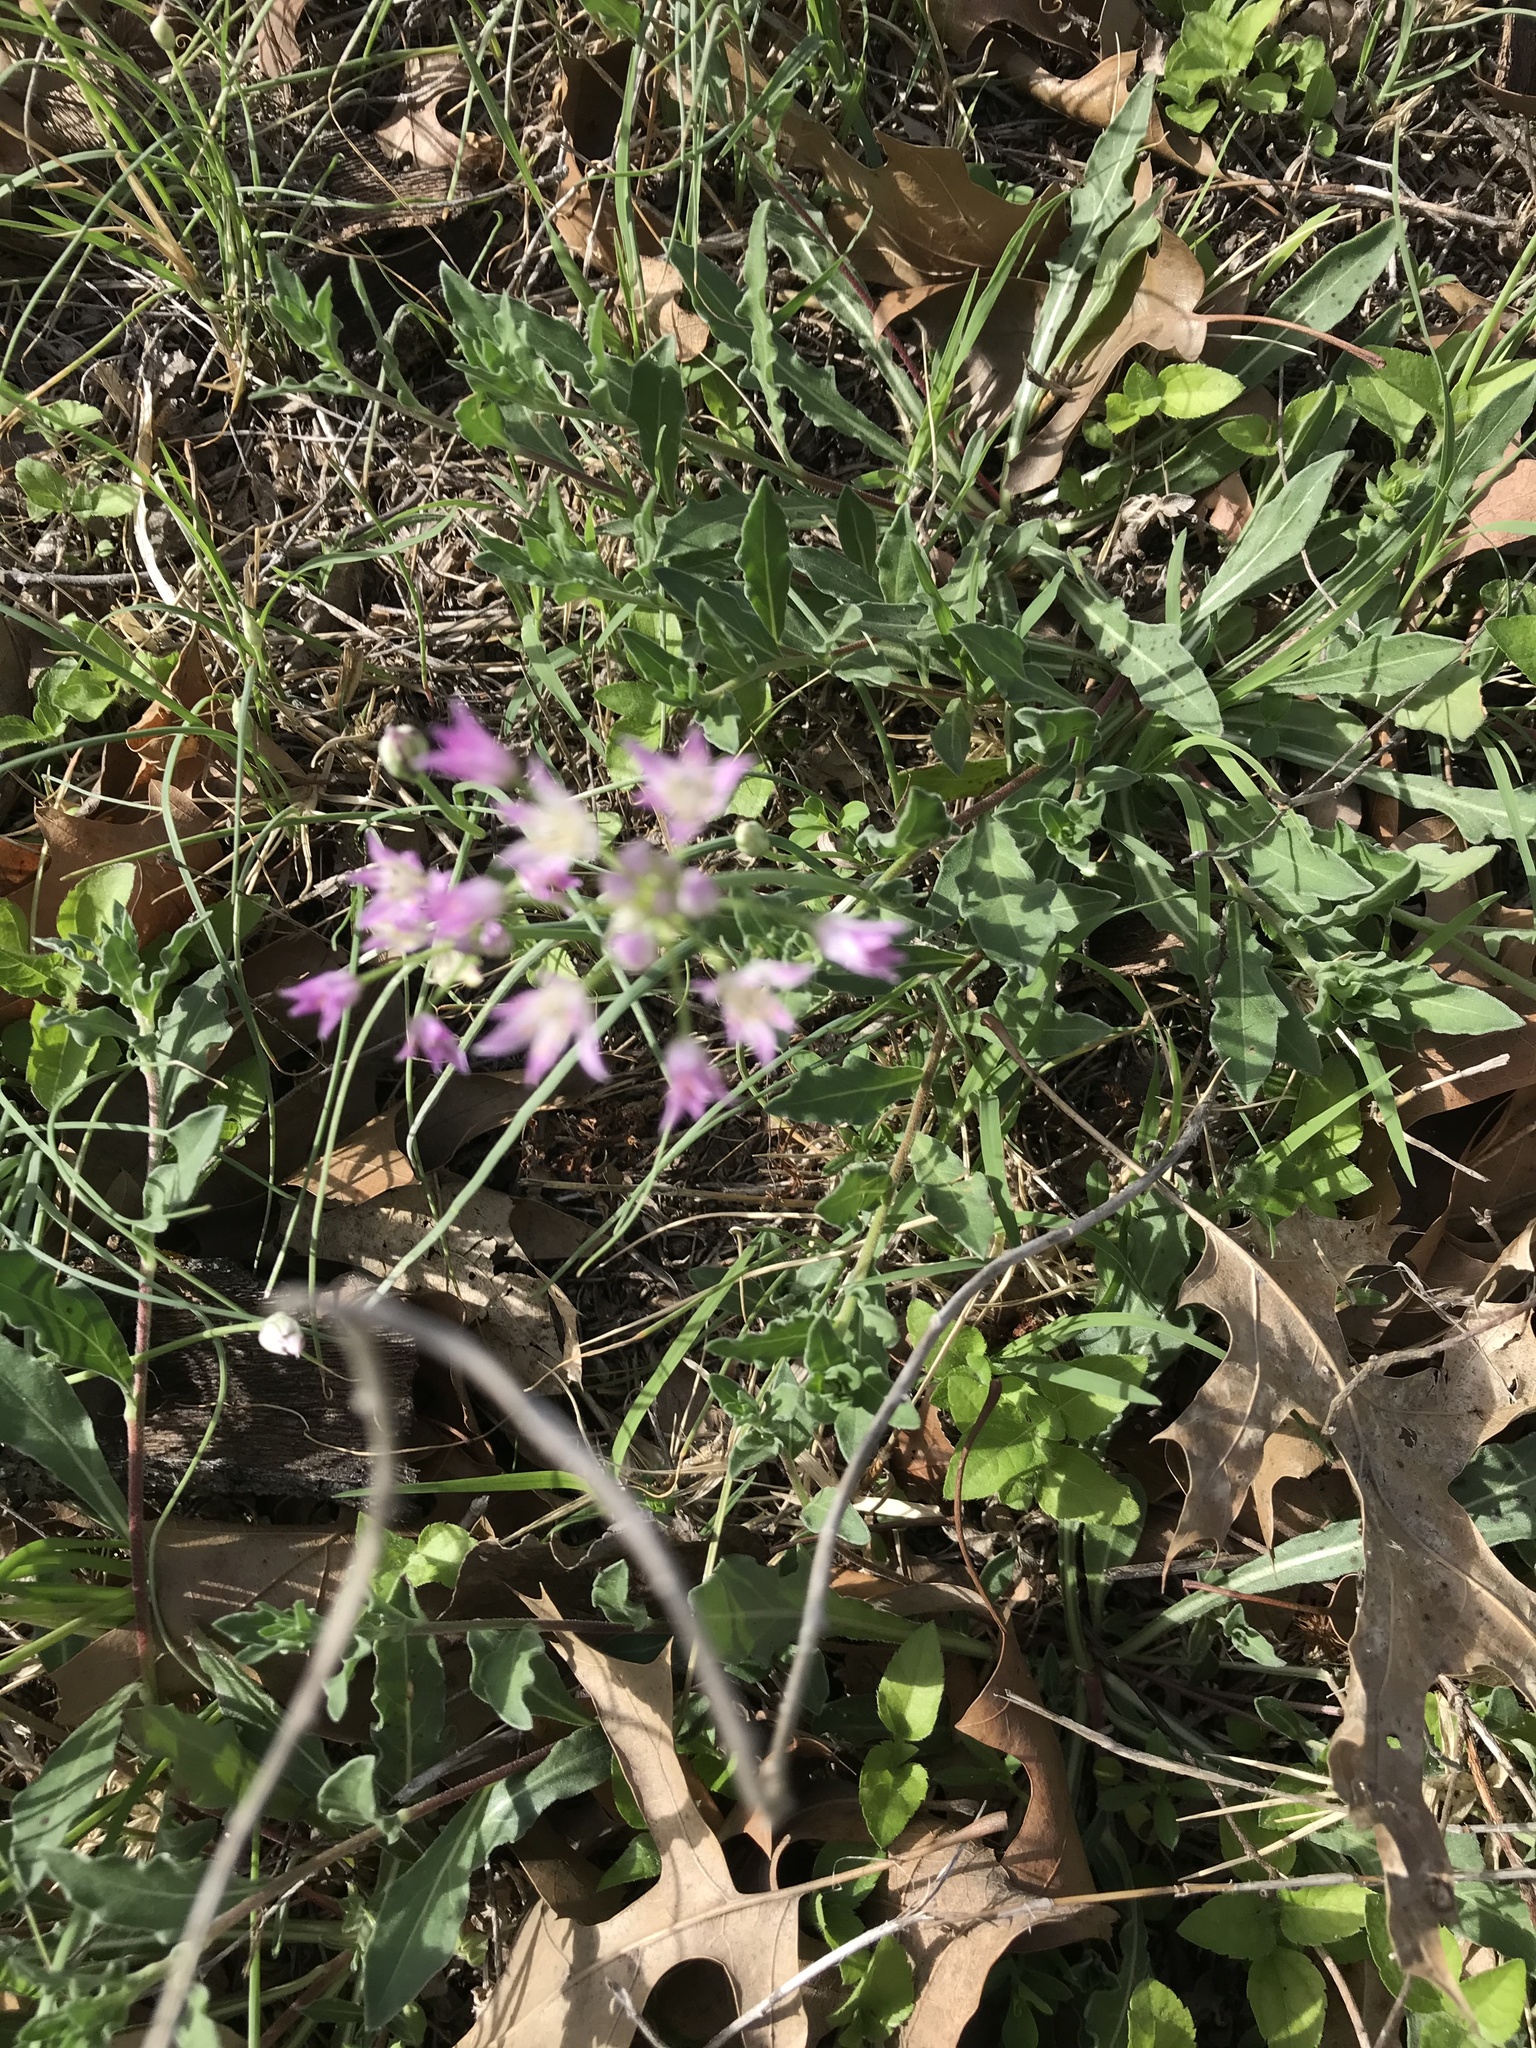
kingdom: Plantae
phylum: Tracheophyta
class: Liliopsida
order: Asparagales
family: Amaryllidaceae
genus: Allium
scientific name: Allium drummondii
